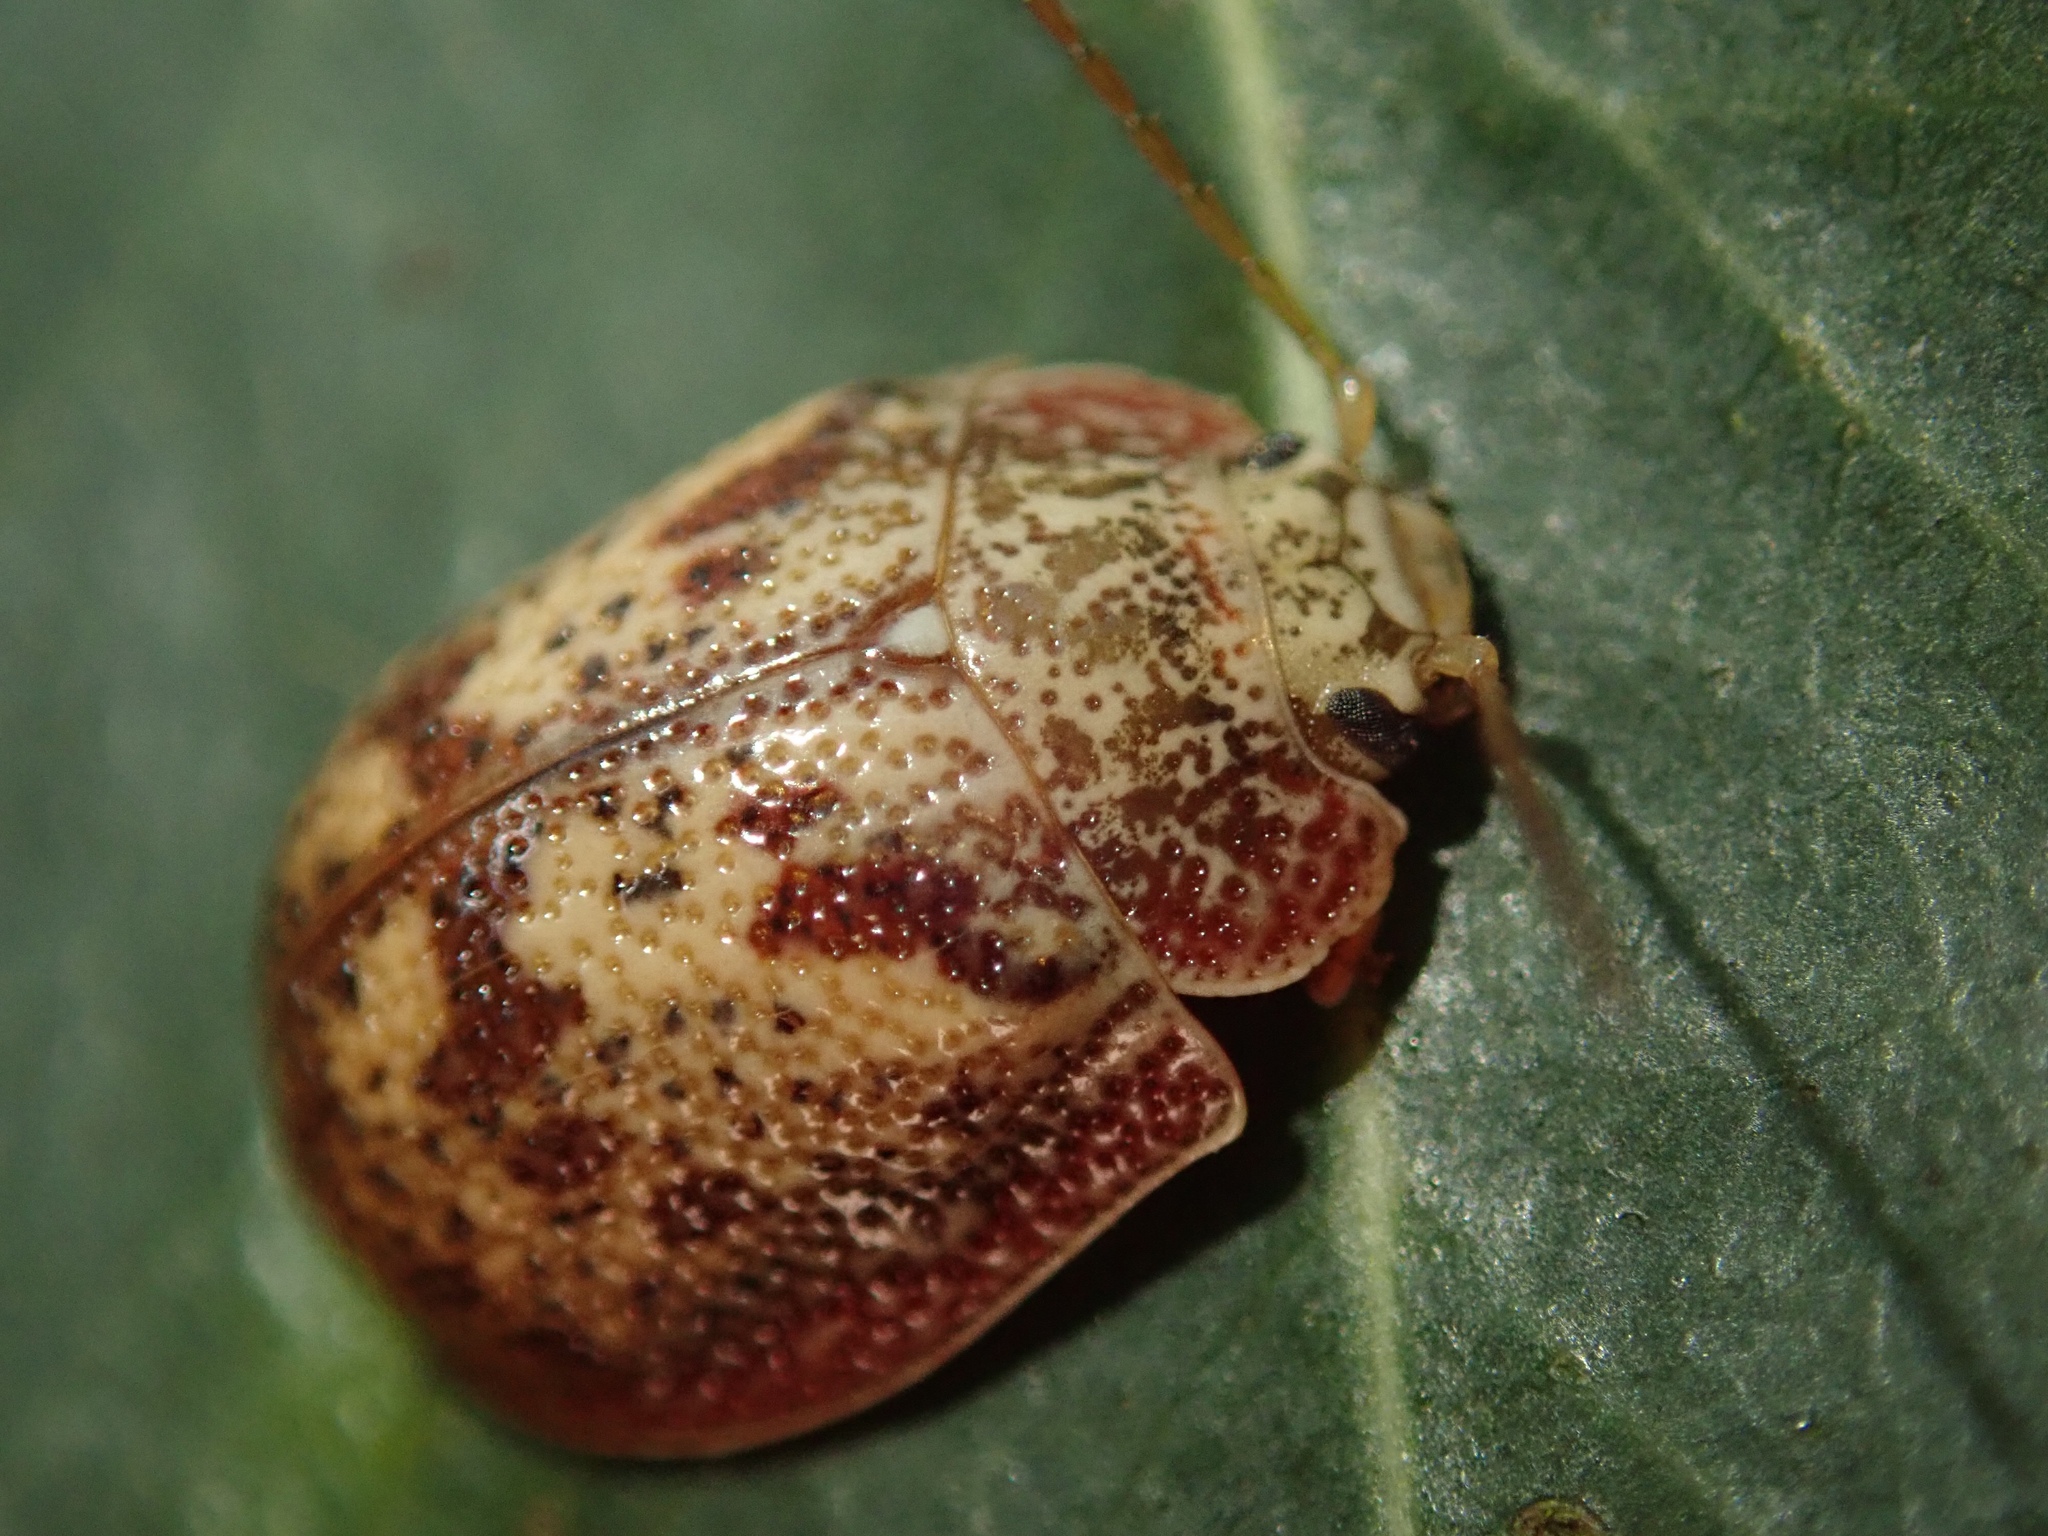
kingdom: Animalia
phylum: Arthropoda
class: Insecta
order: Coleoptera
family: Chrysomelidae
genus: Paropsis
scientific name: Paropsis charybdis
